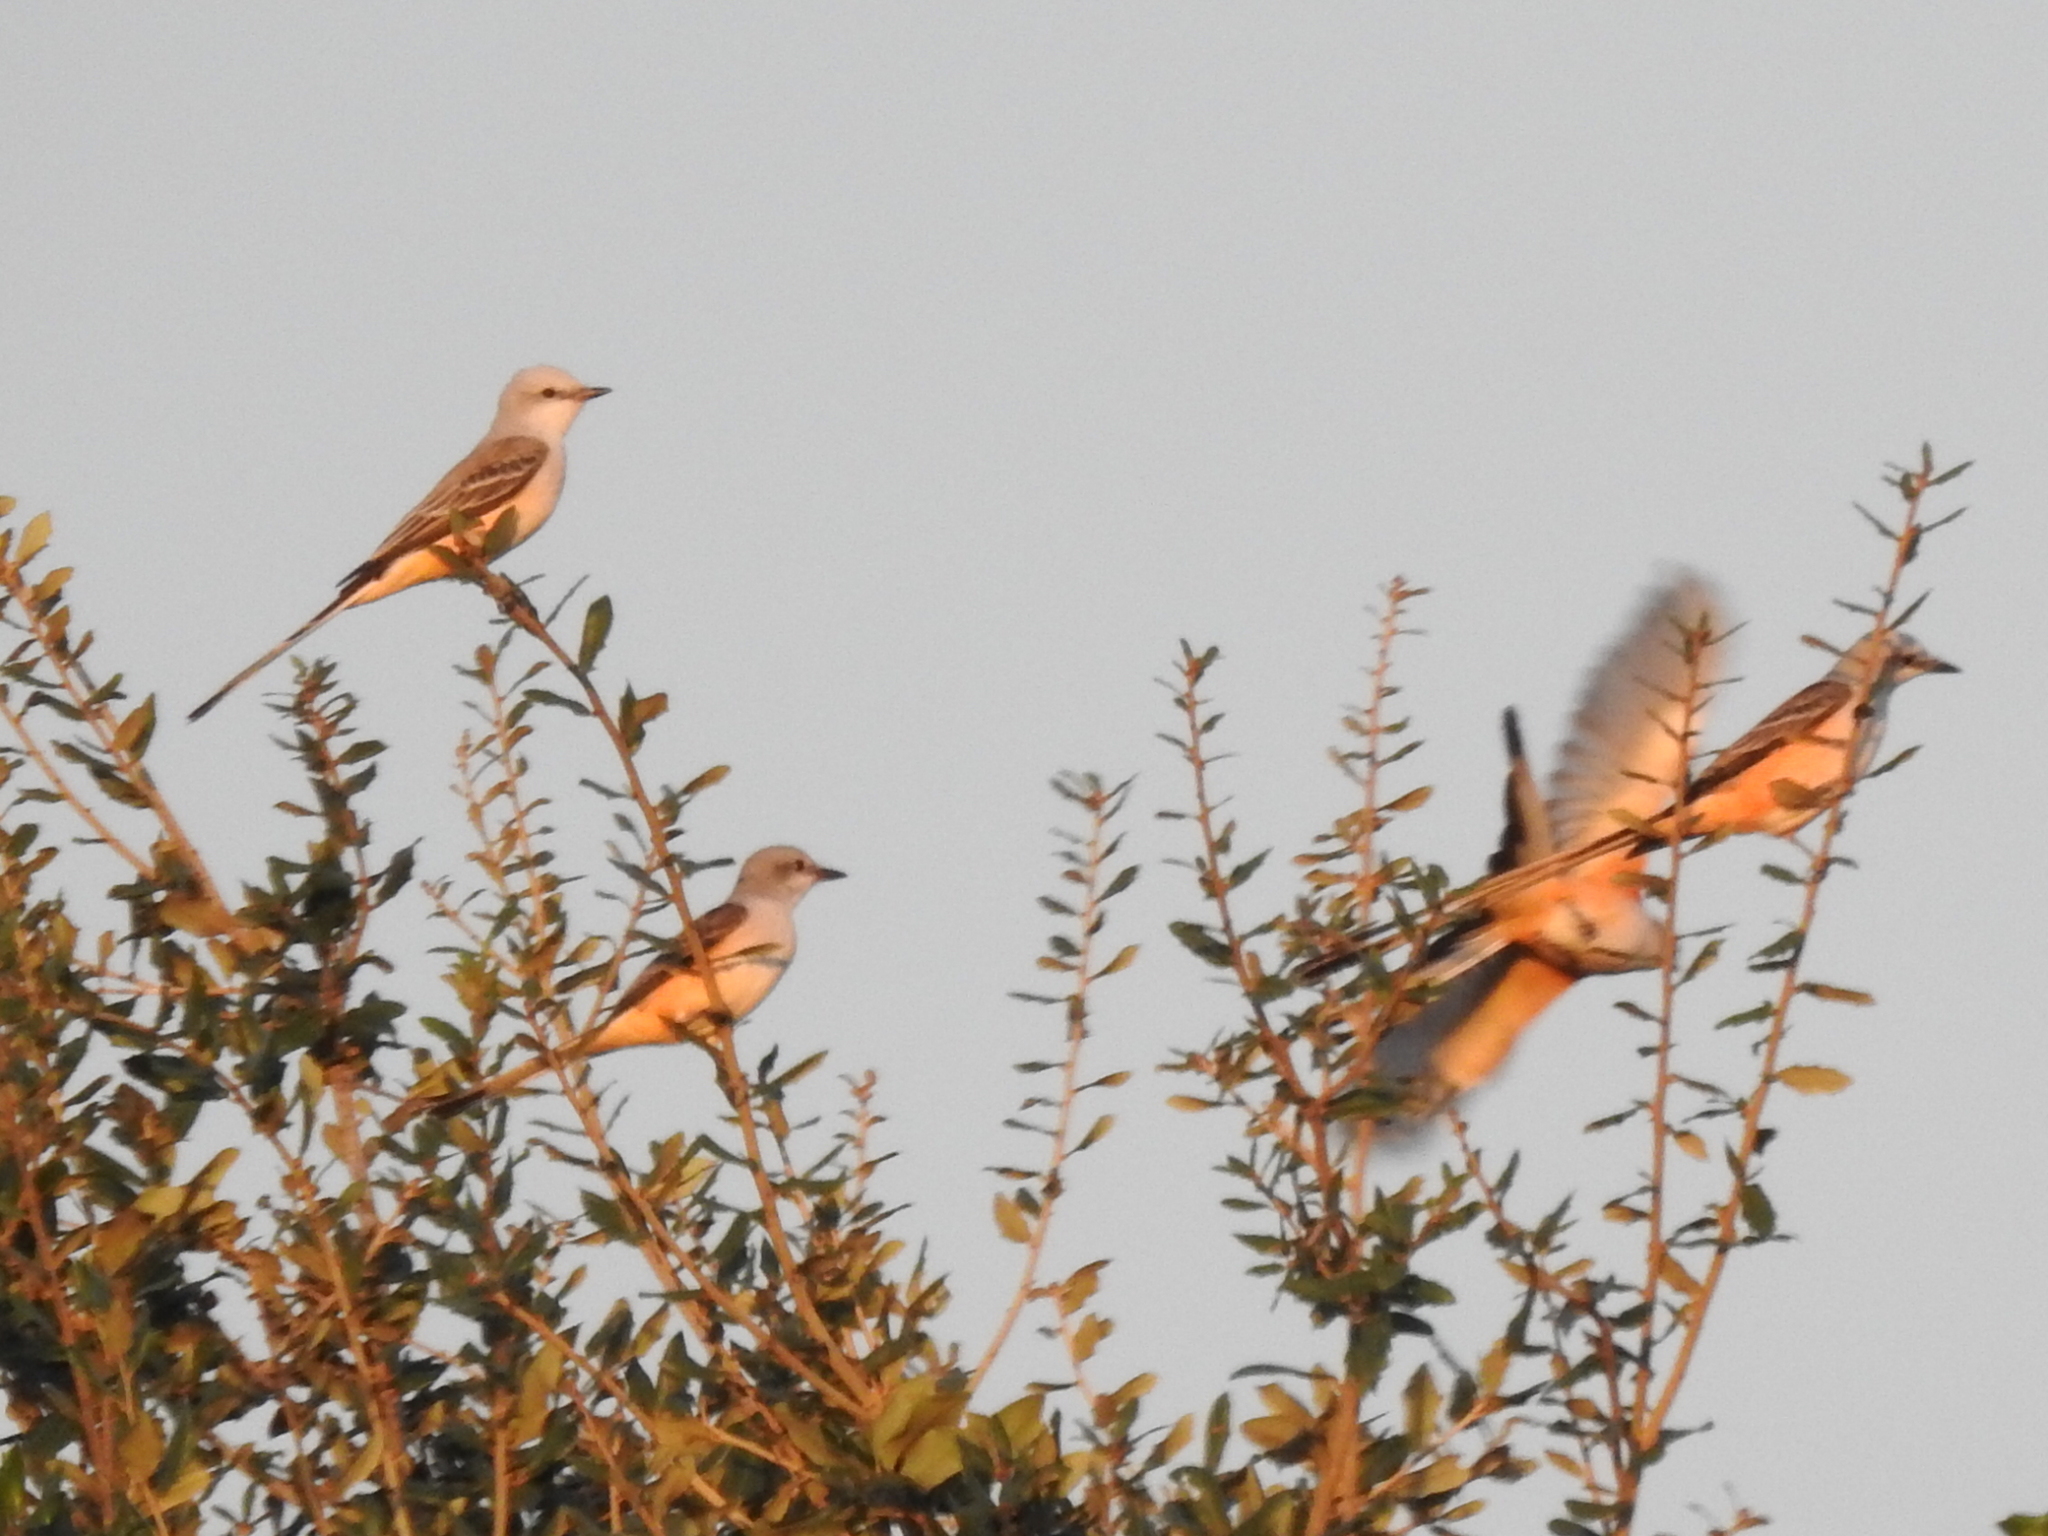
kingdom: Animalia
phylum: Chordata
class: Aves
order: Passeriformes
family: Tyrannidae
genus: Tyrannus
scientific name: Tyrannus forficatus
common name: Scissor-tailed flycatcher
